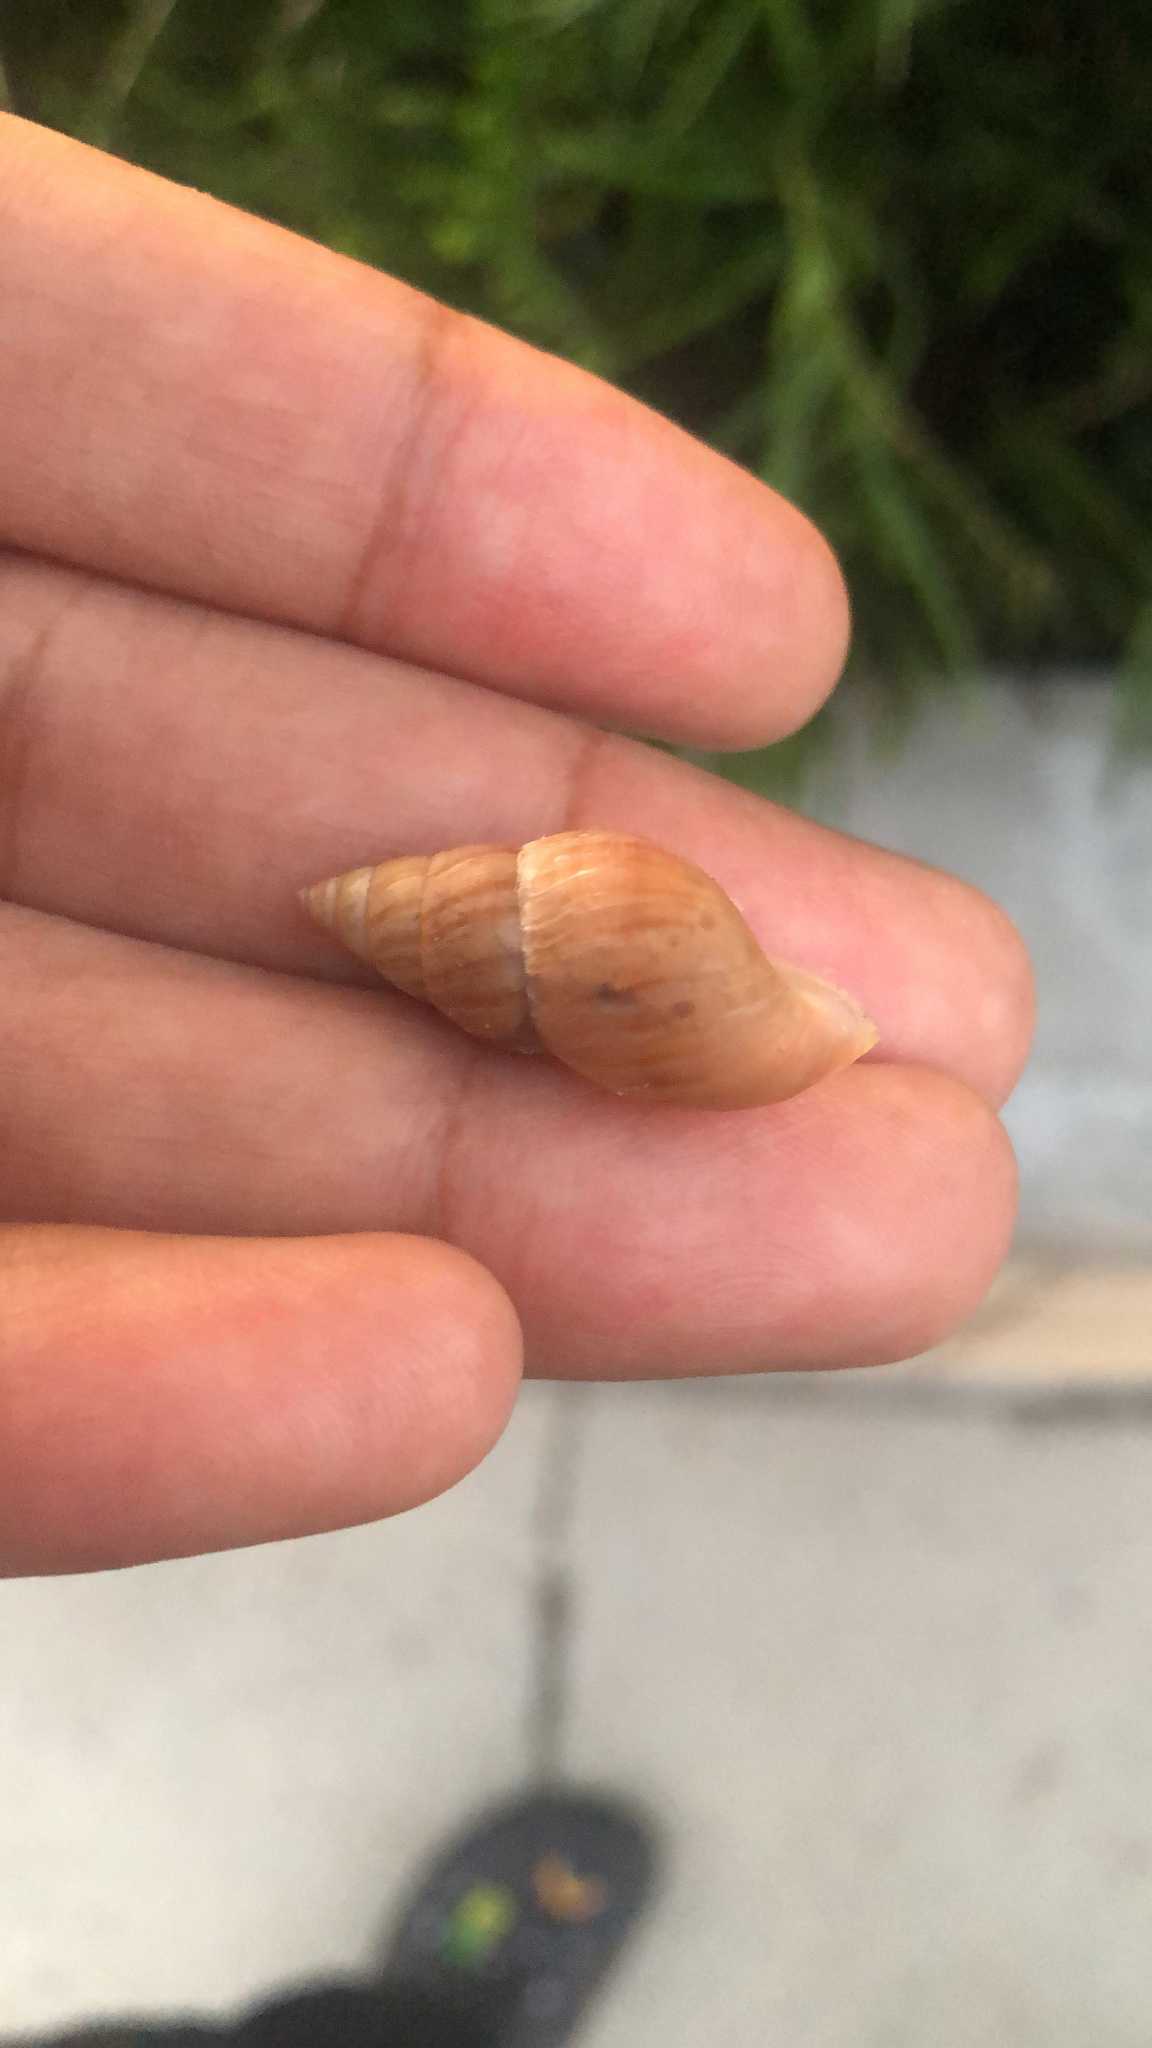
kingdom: Animalia
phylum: Mollusca
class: Gastropoda
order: Stylommatophora
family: Bulimulidae
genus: Bulimulus
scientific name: Bulimulus bonariensis
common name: Snail
